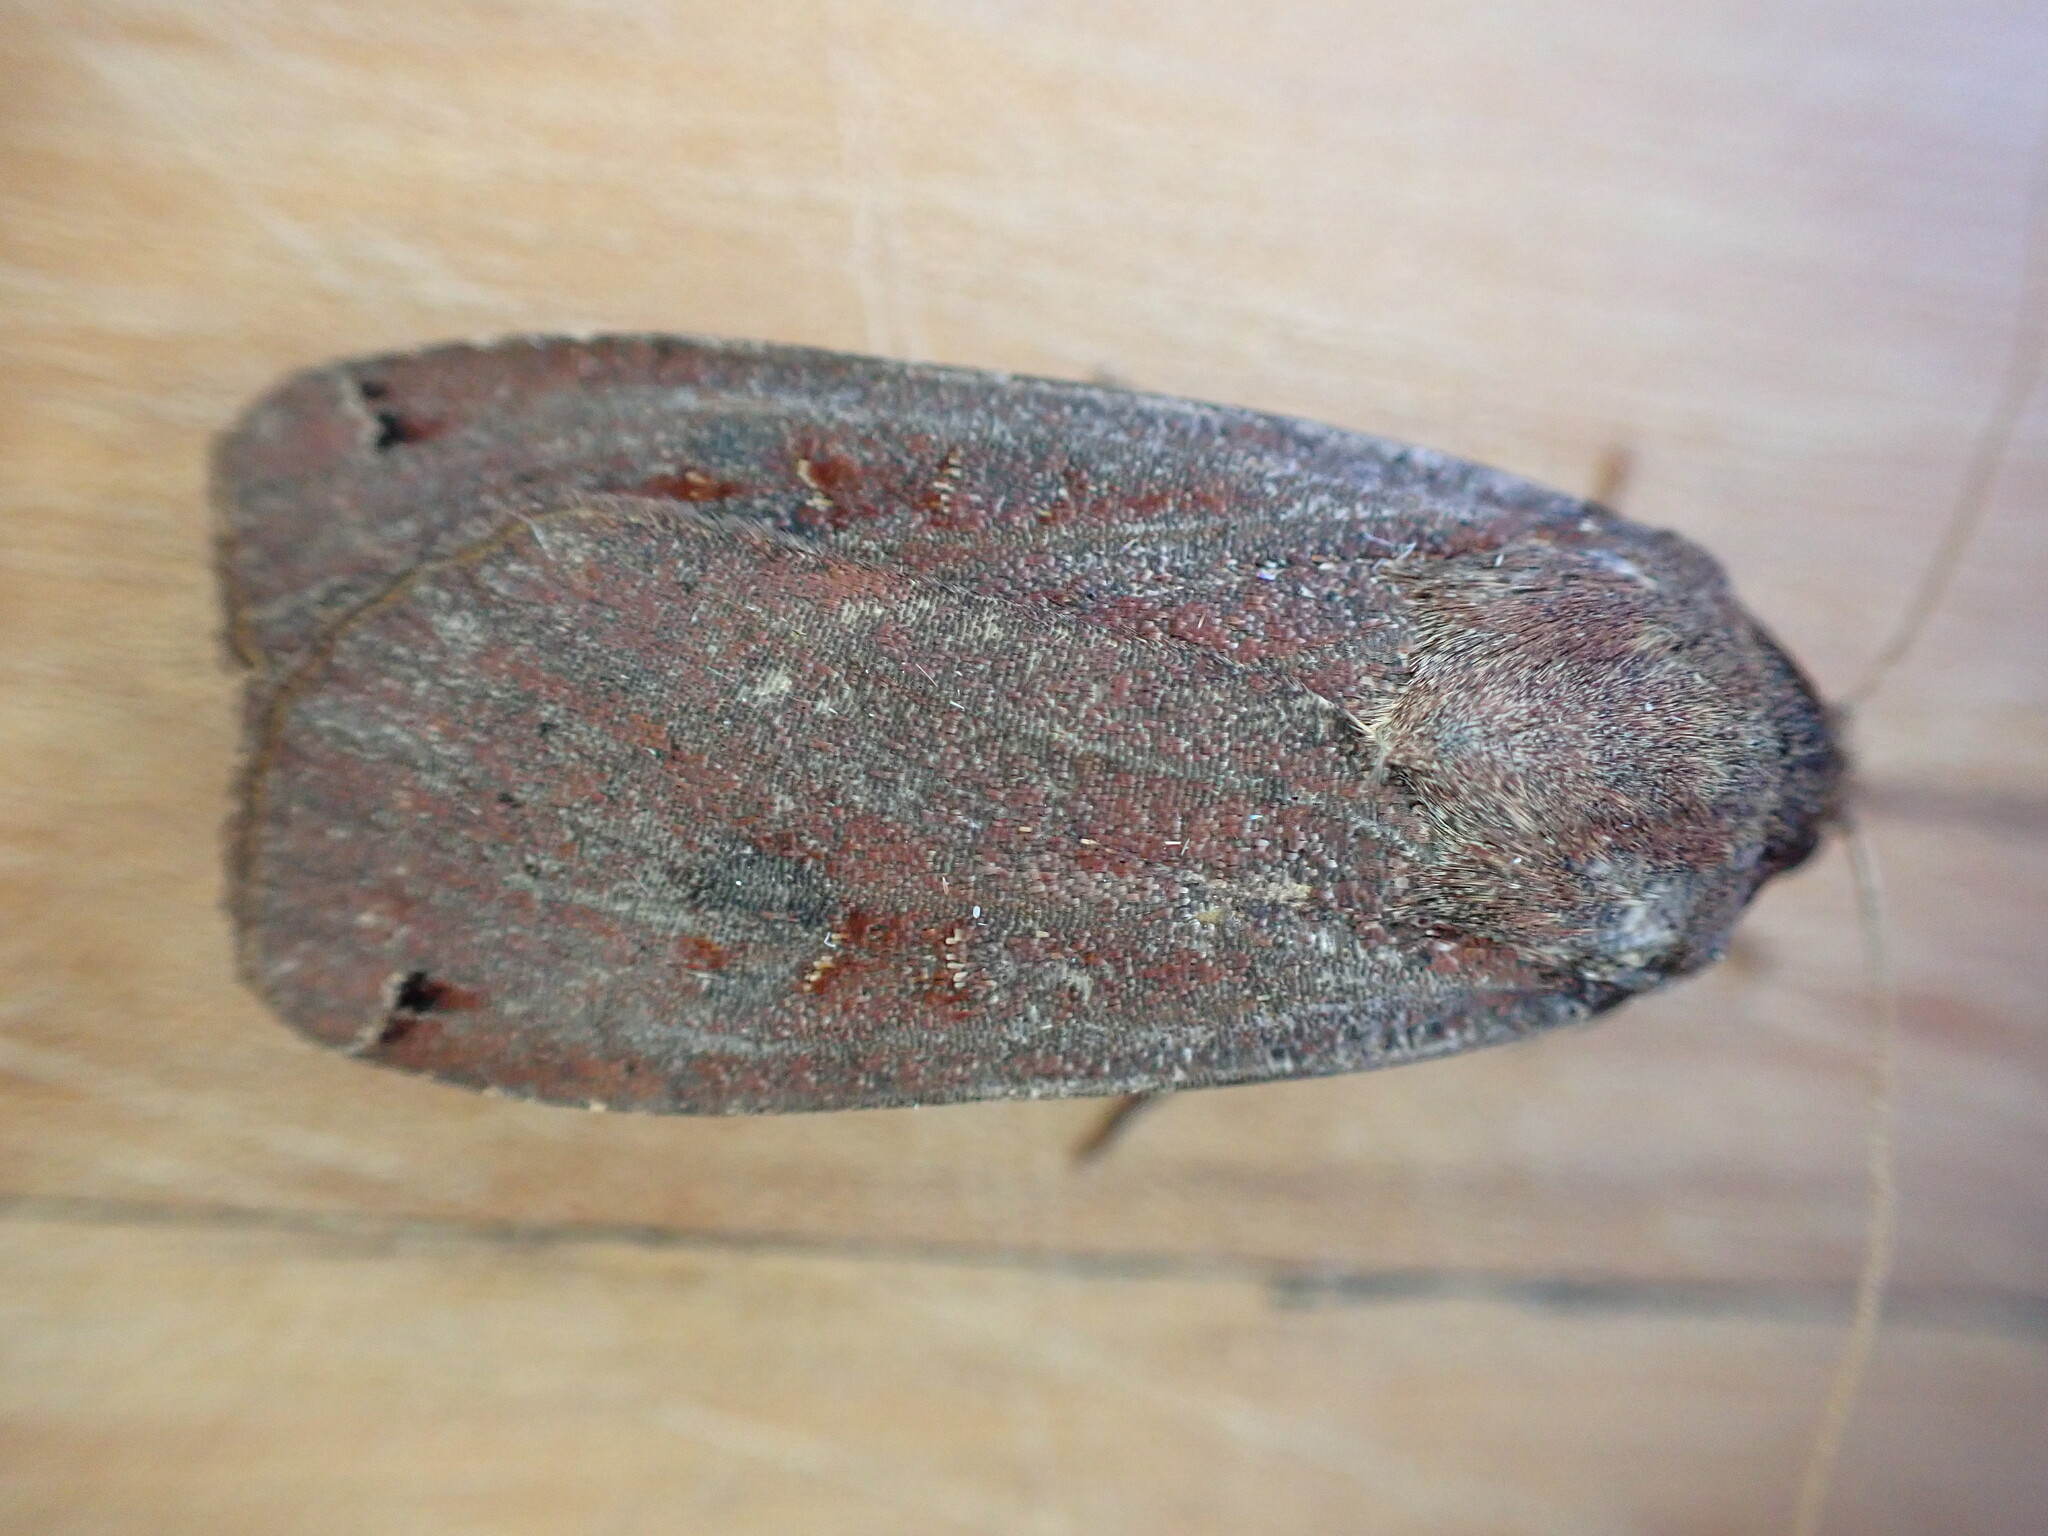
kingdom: Animalia
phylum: Arthropoda
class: Insecta
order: Lepidoptera
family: Noctuidae
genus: Noctua
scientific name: Noctua pronuba
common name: Large yellow underwing
